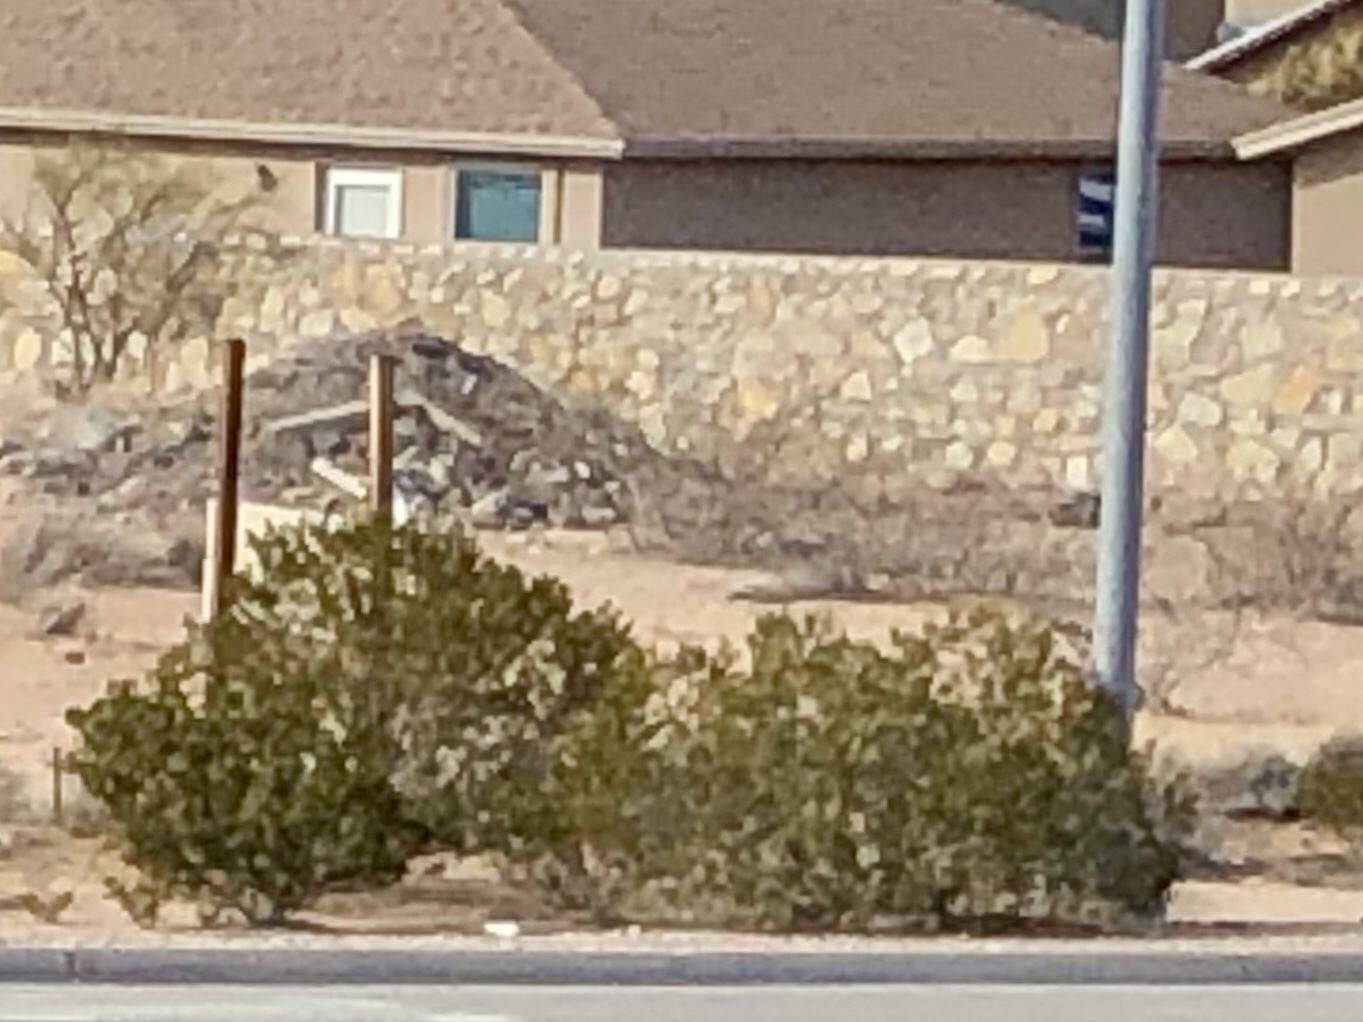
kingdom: Plantae
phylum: Tracheophyta
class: Magnoliopsida
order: Zygophyllales
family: Zygophyllaceae
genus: Larrea
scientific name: Larrea tridentata
